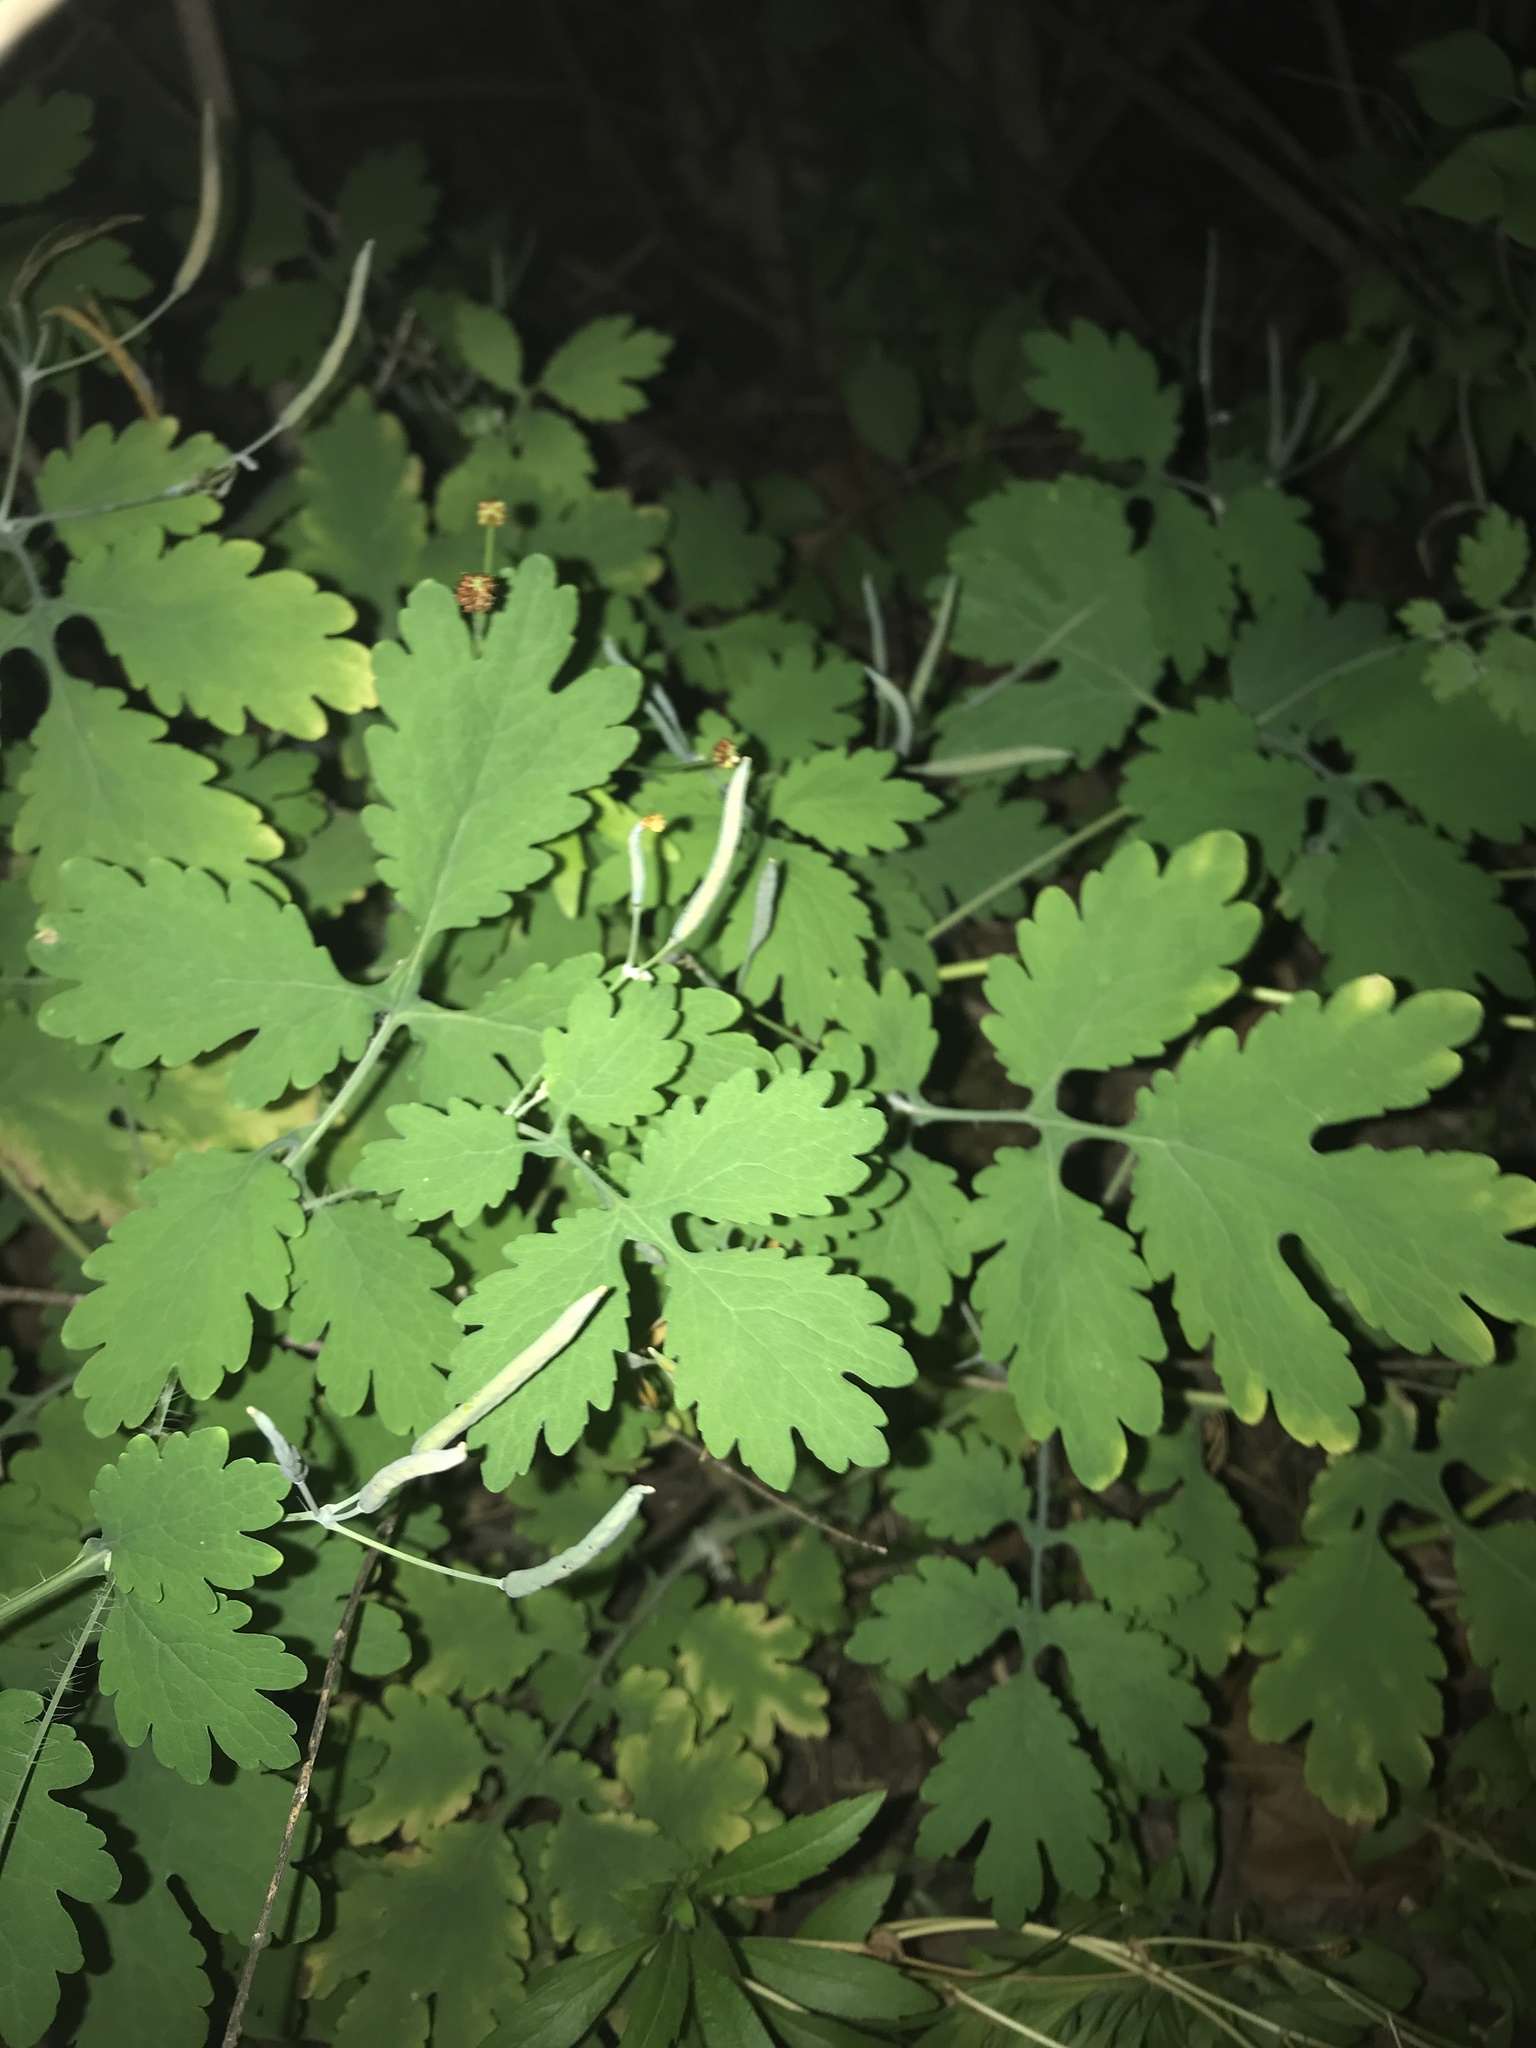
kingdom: Plantae
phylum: Tracheophyta
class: Magnoliopsida
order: Ranunculales
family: Papaveraceae
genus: Chelidonium
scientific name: Chelidonium majus
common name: Greater celandine
